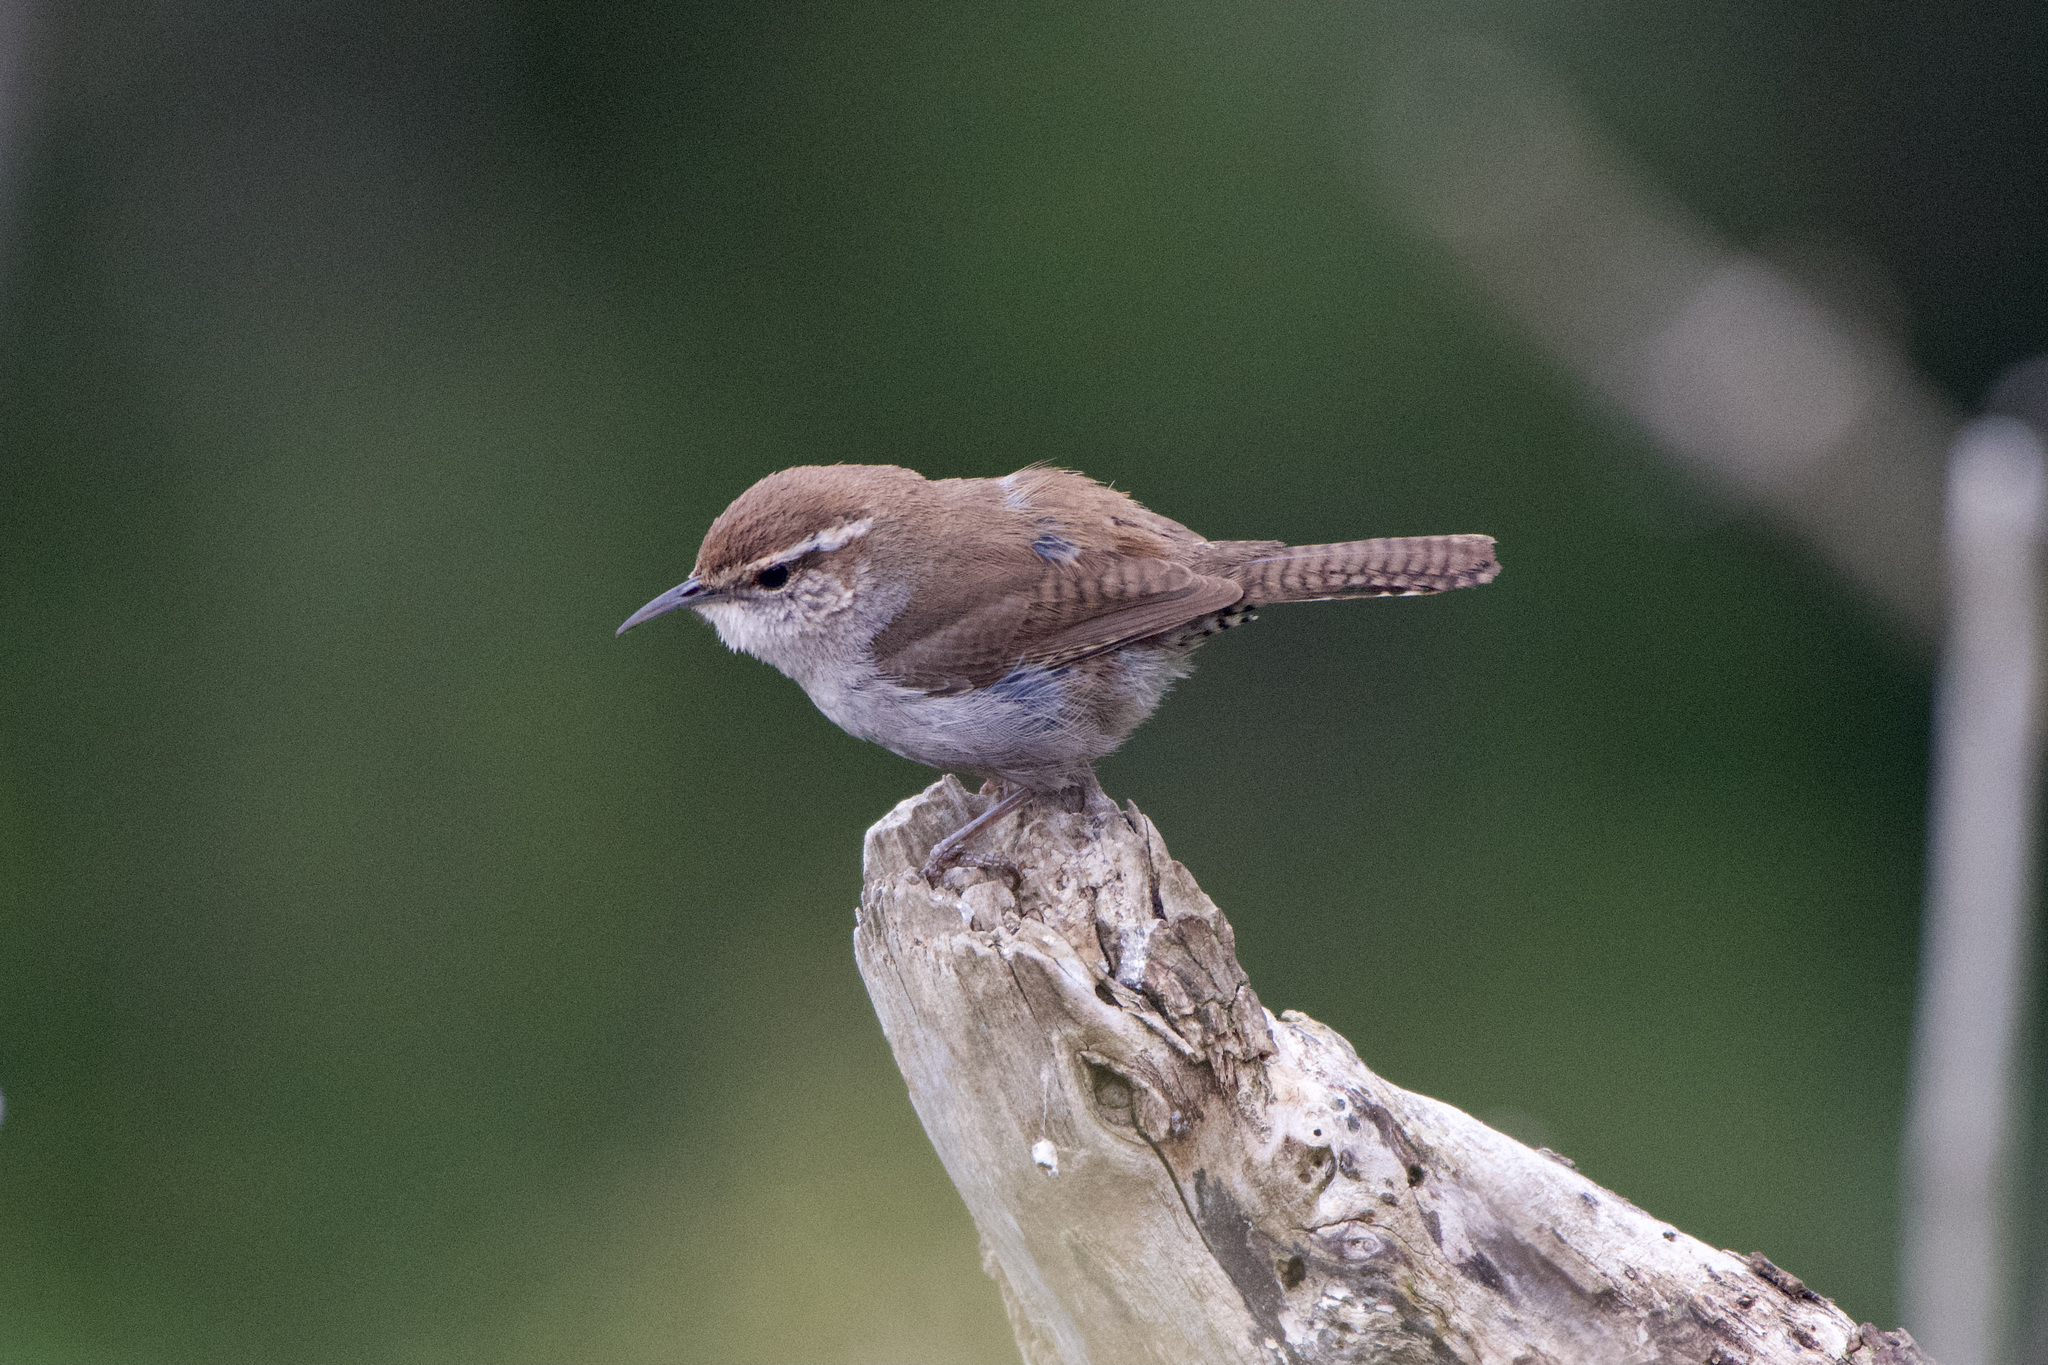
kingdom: Animalia
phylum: Chordata
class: Aves
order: Passeriformes
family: Troglodytidae
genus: Thryomanes
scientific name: Thryomanes bewickii
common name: Bewick's wren
